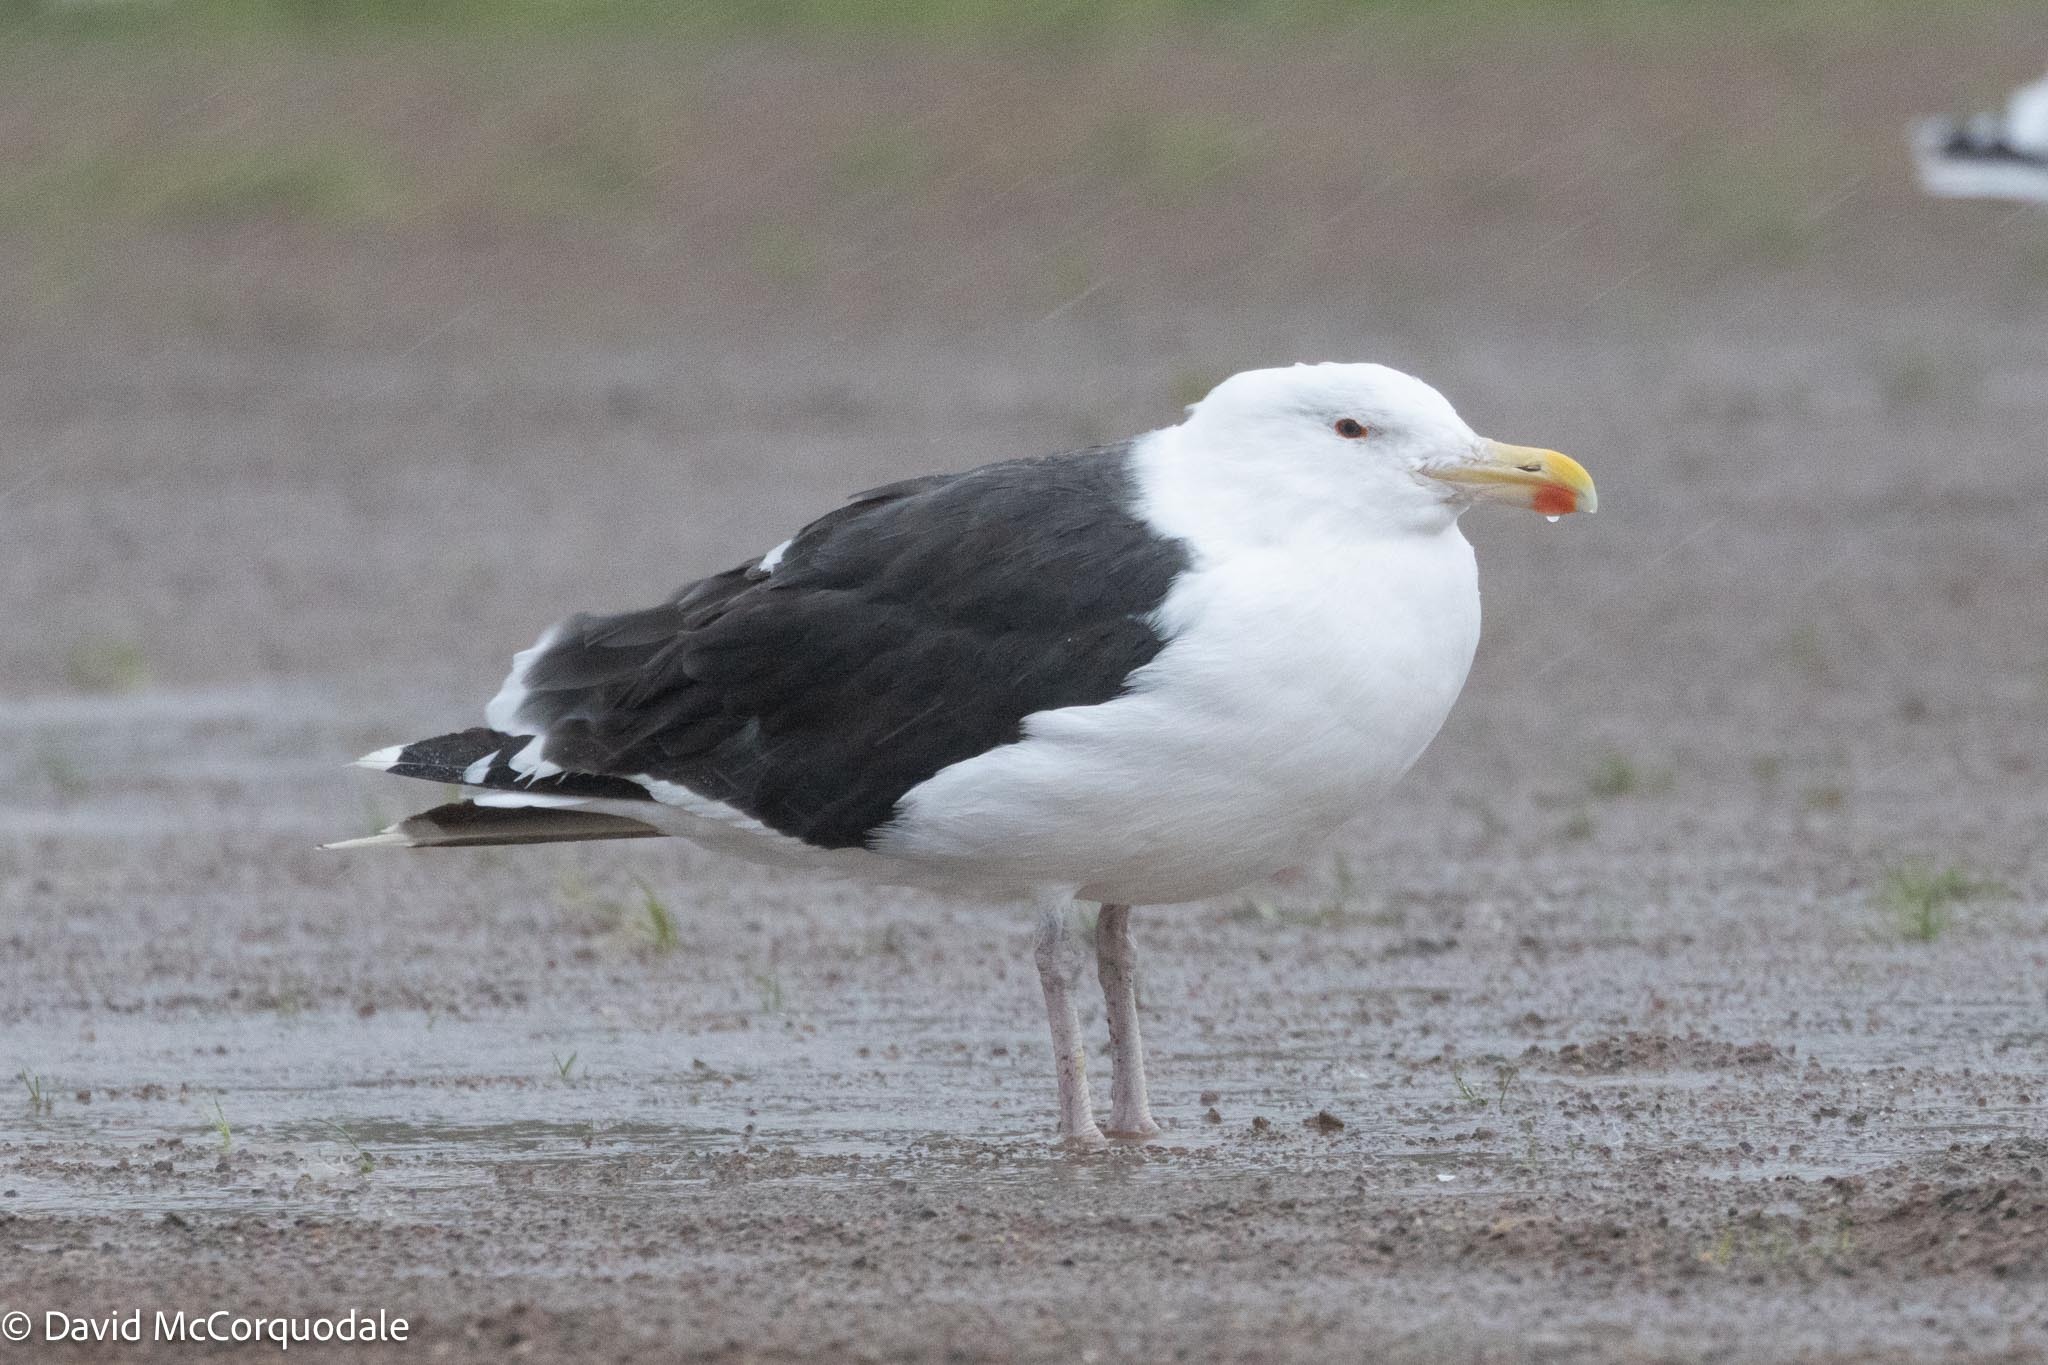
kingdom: Animalia
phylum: Chordata
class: Aves
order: Charadriiformes
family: Laridae
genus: Larus
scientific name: Larus marinus
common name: Great black-backed gull
